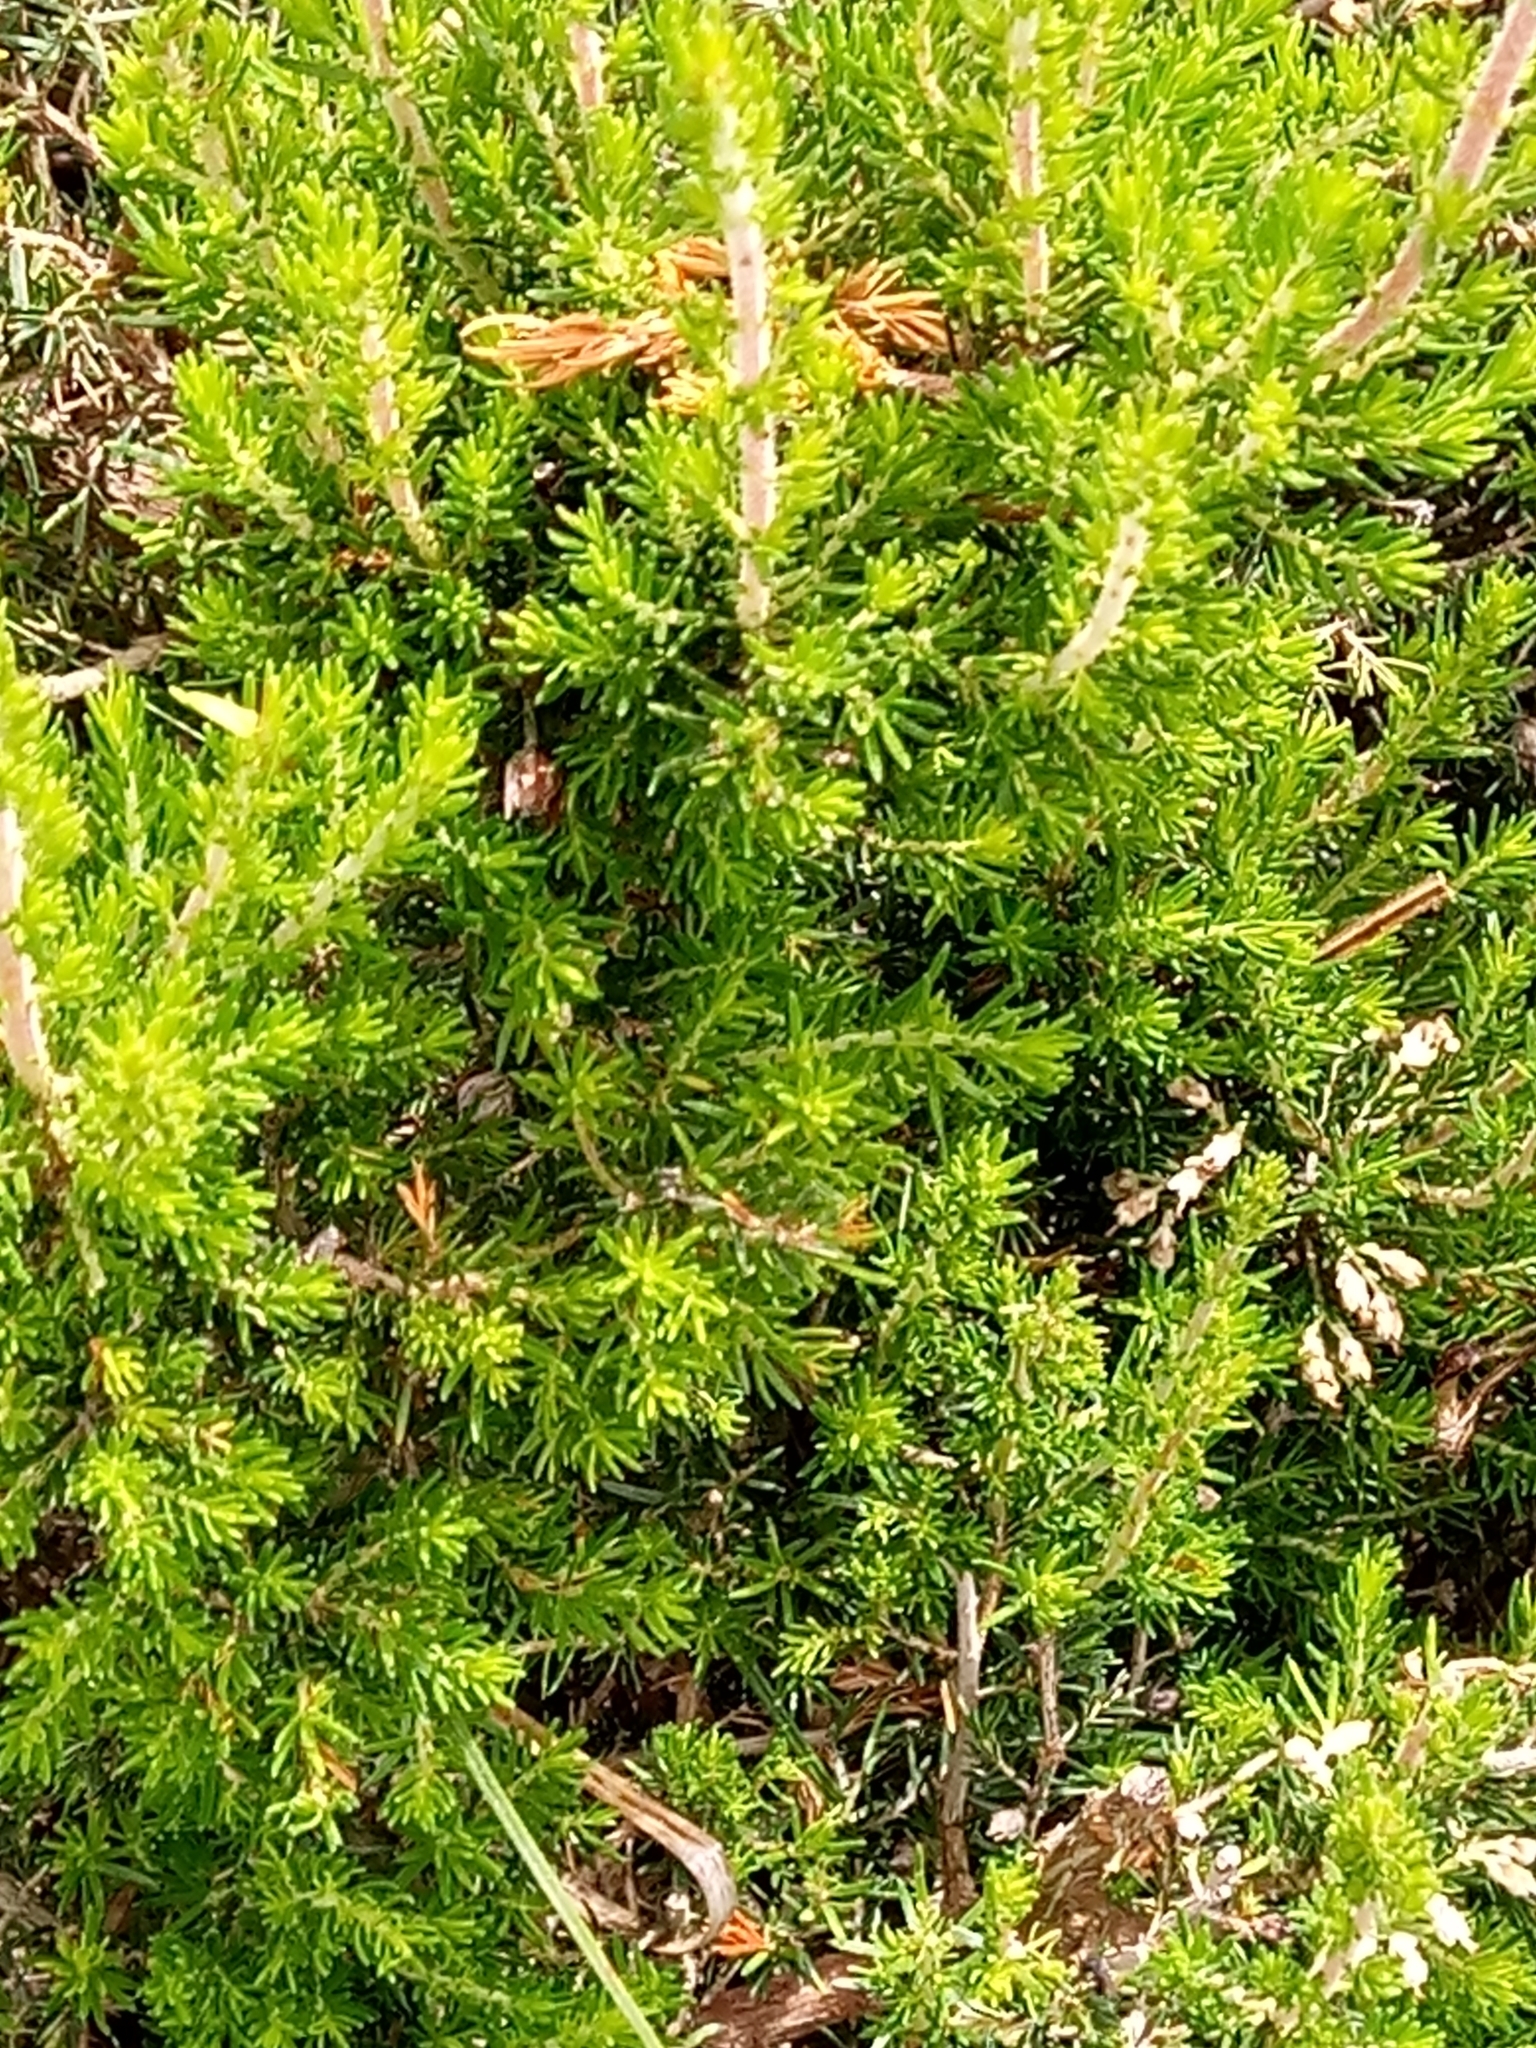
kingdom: Plantae
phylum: Tracheophyta
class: Magnoliopsida
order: Ericales
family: Ericaceae
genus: Erica
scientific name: Erica arborea
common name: Tree heath
